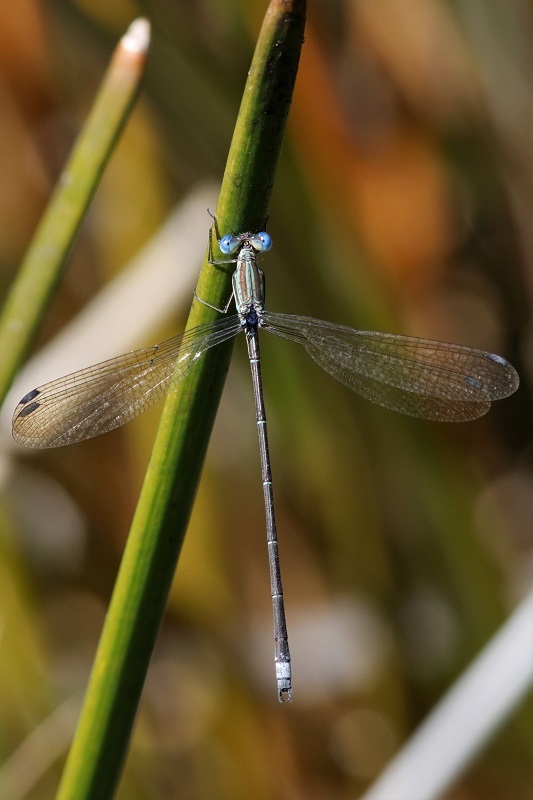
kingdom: Animalia
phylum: Arthropoda
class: Insecta
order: Odonata
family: Lestidae
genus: Lestes
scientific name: Lestes virgatus
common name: Smoky spreadwing
